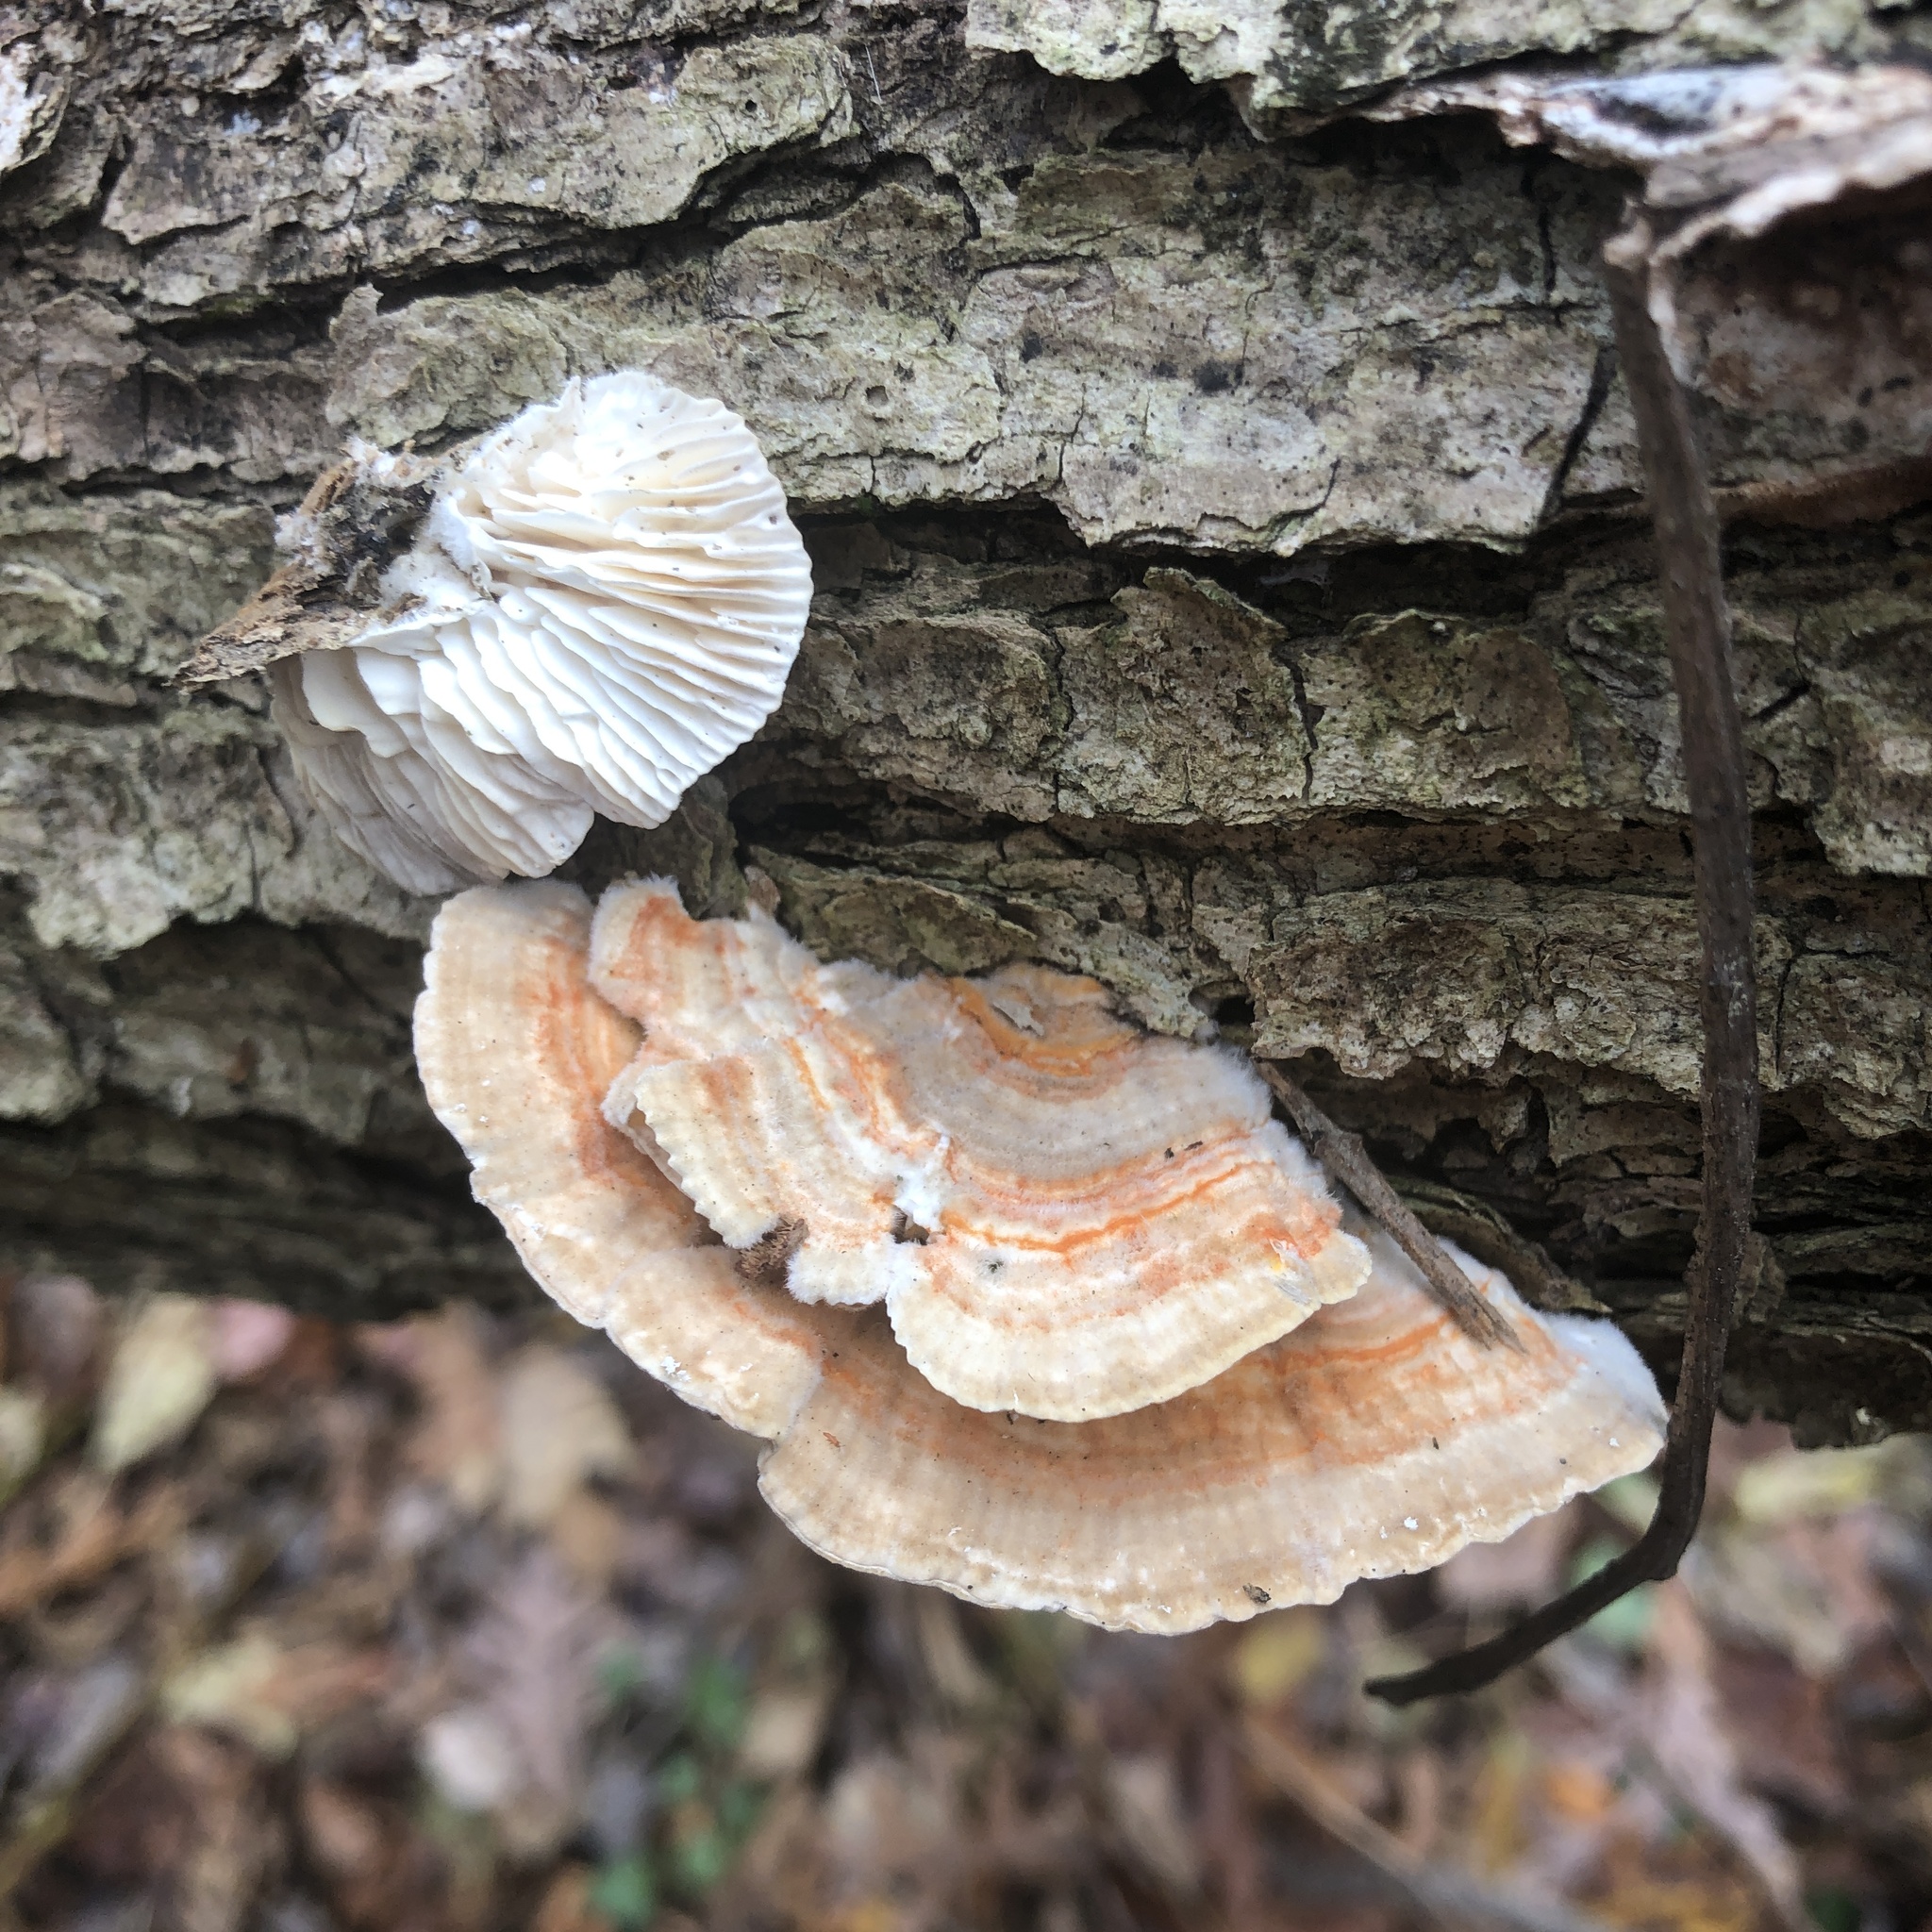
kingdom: Fungi
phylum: Basidiomycota
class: Agaricomycetes
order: Polyporales
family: Polyporaceae
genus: Lenzites
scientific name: Lenzites betulinus
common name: Birch mazegill
